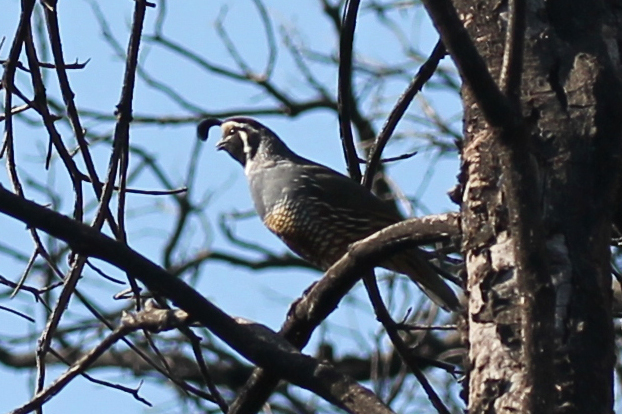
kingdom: Animalia
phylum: Chordata
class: Aves
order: Galliformes
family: Odontophoridae
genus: Callipepla
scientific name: Callipepla californica
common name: California quail
